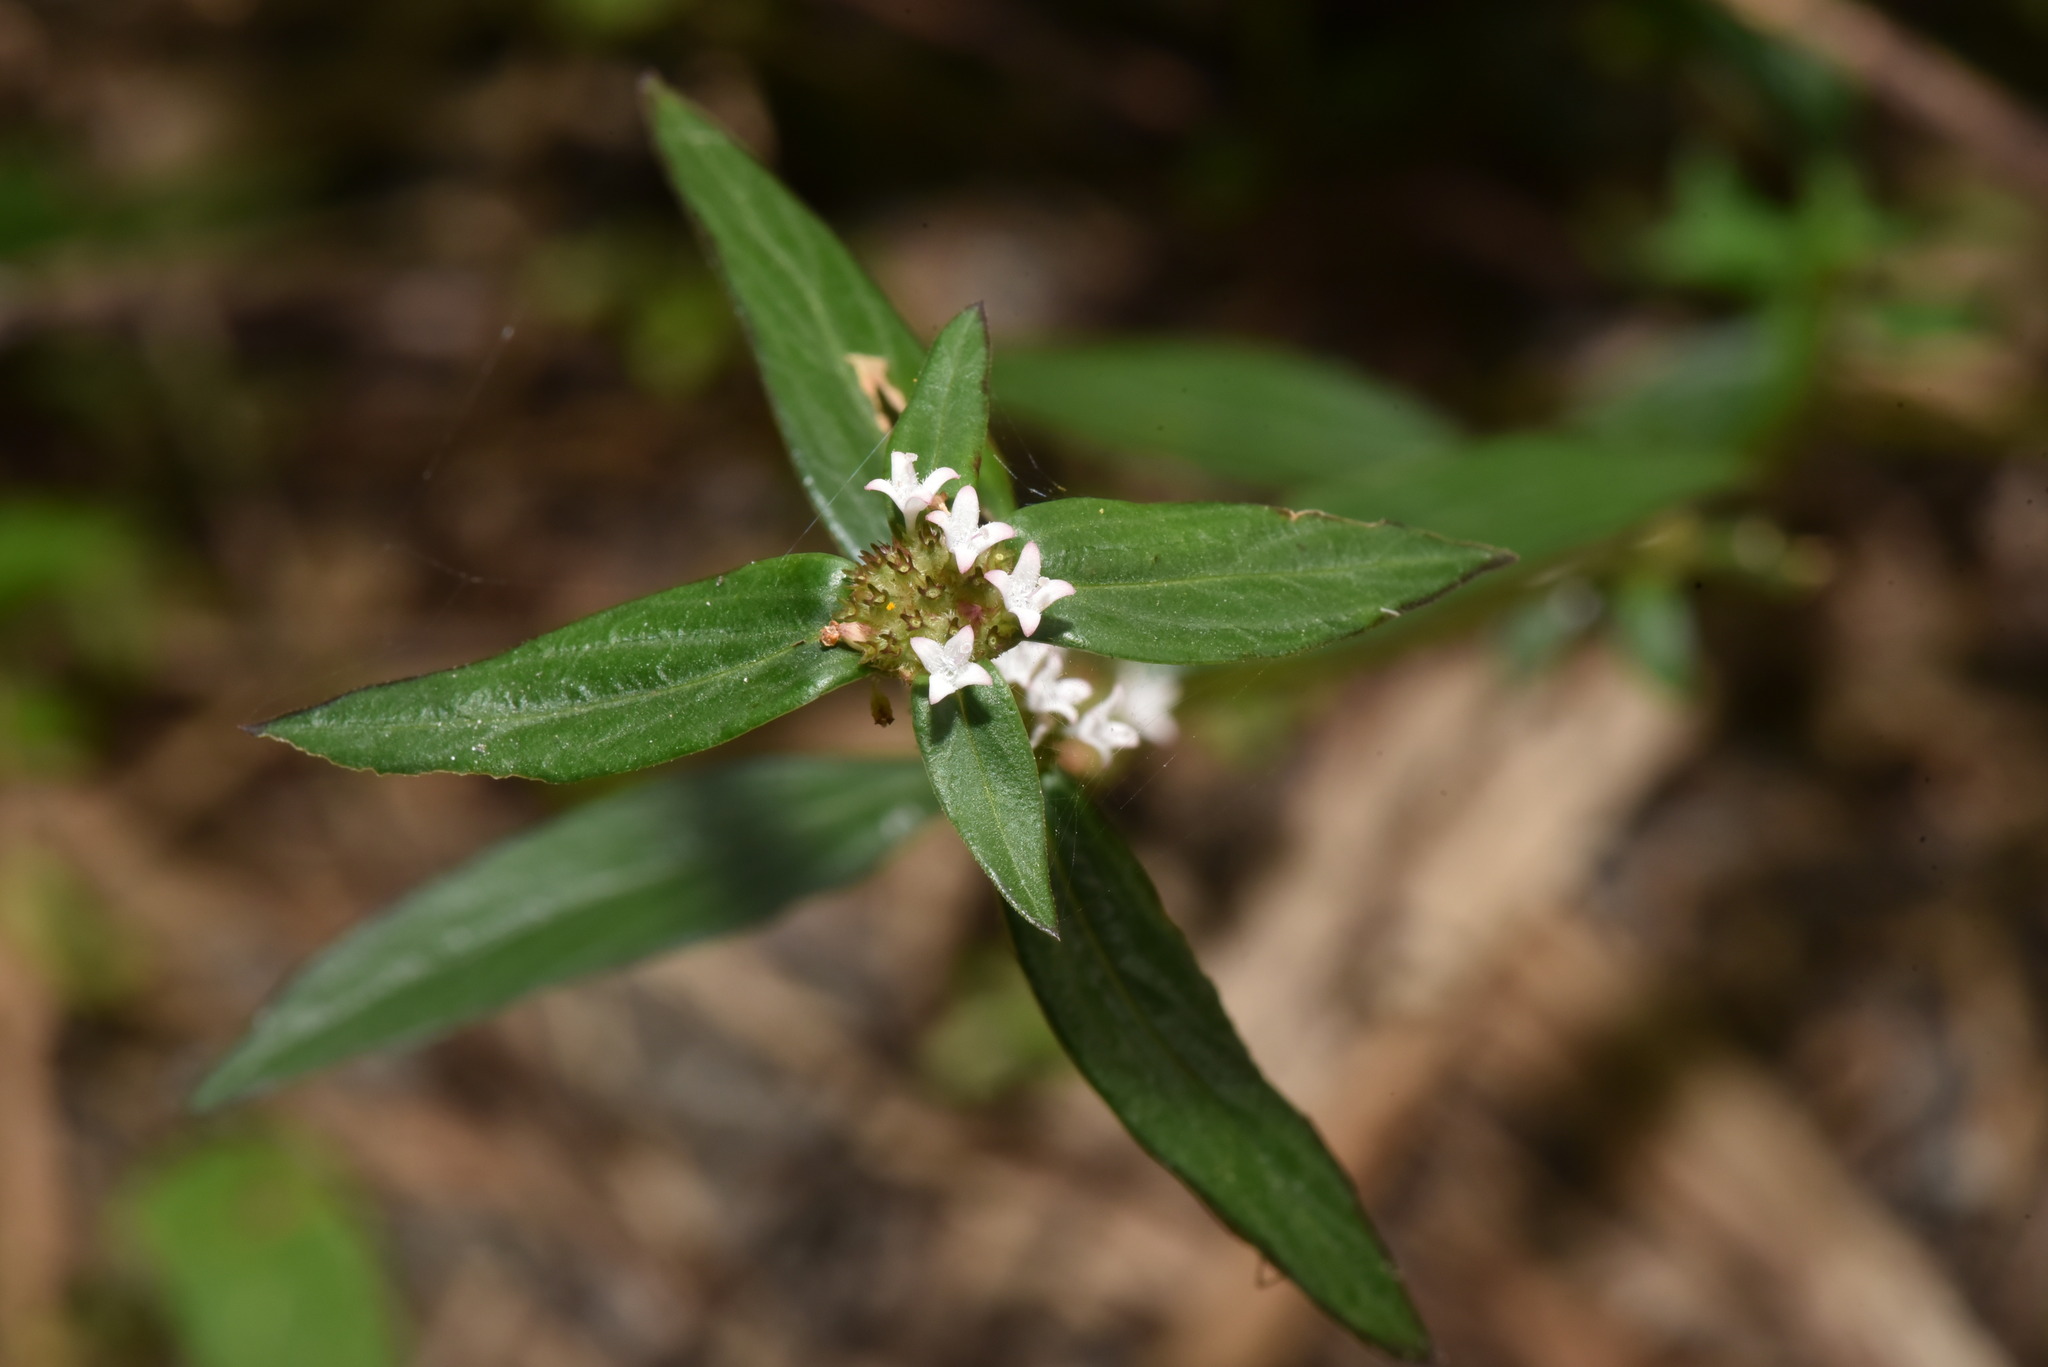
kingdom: Plantae
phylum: Tracheophyta
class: Magnoliopsida
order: Gentianales
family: Rubiaceae
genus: Spermacoce
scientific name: Spermacoce remota
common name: Woodland false buttonweed
